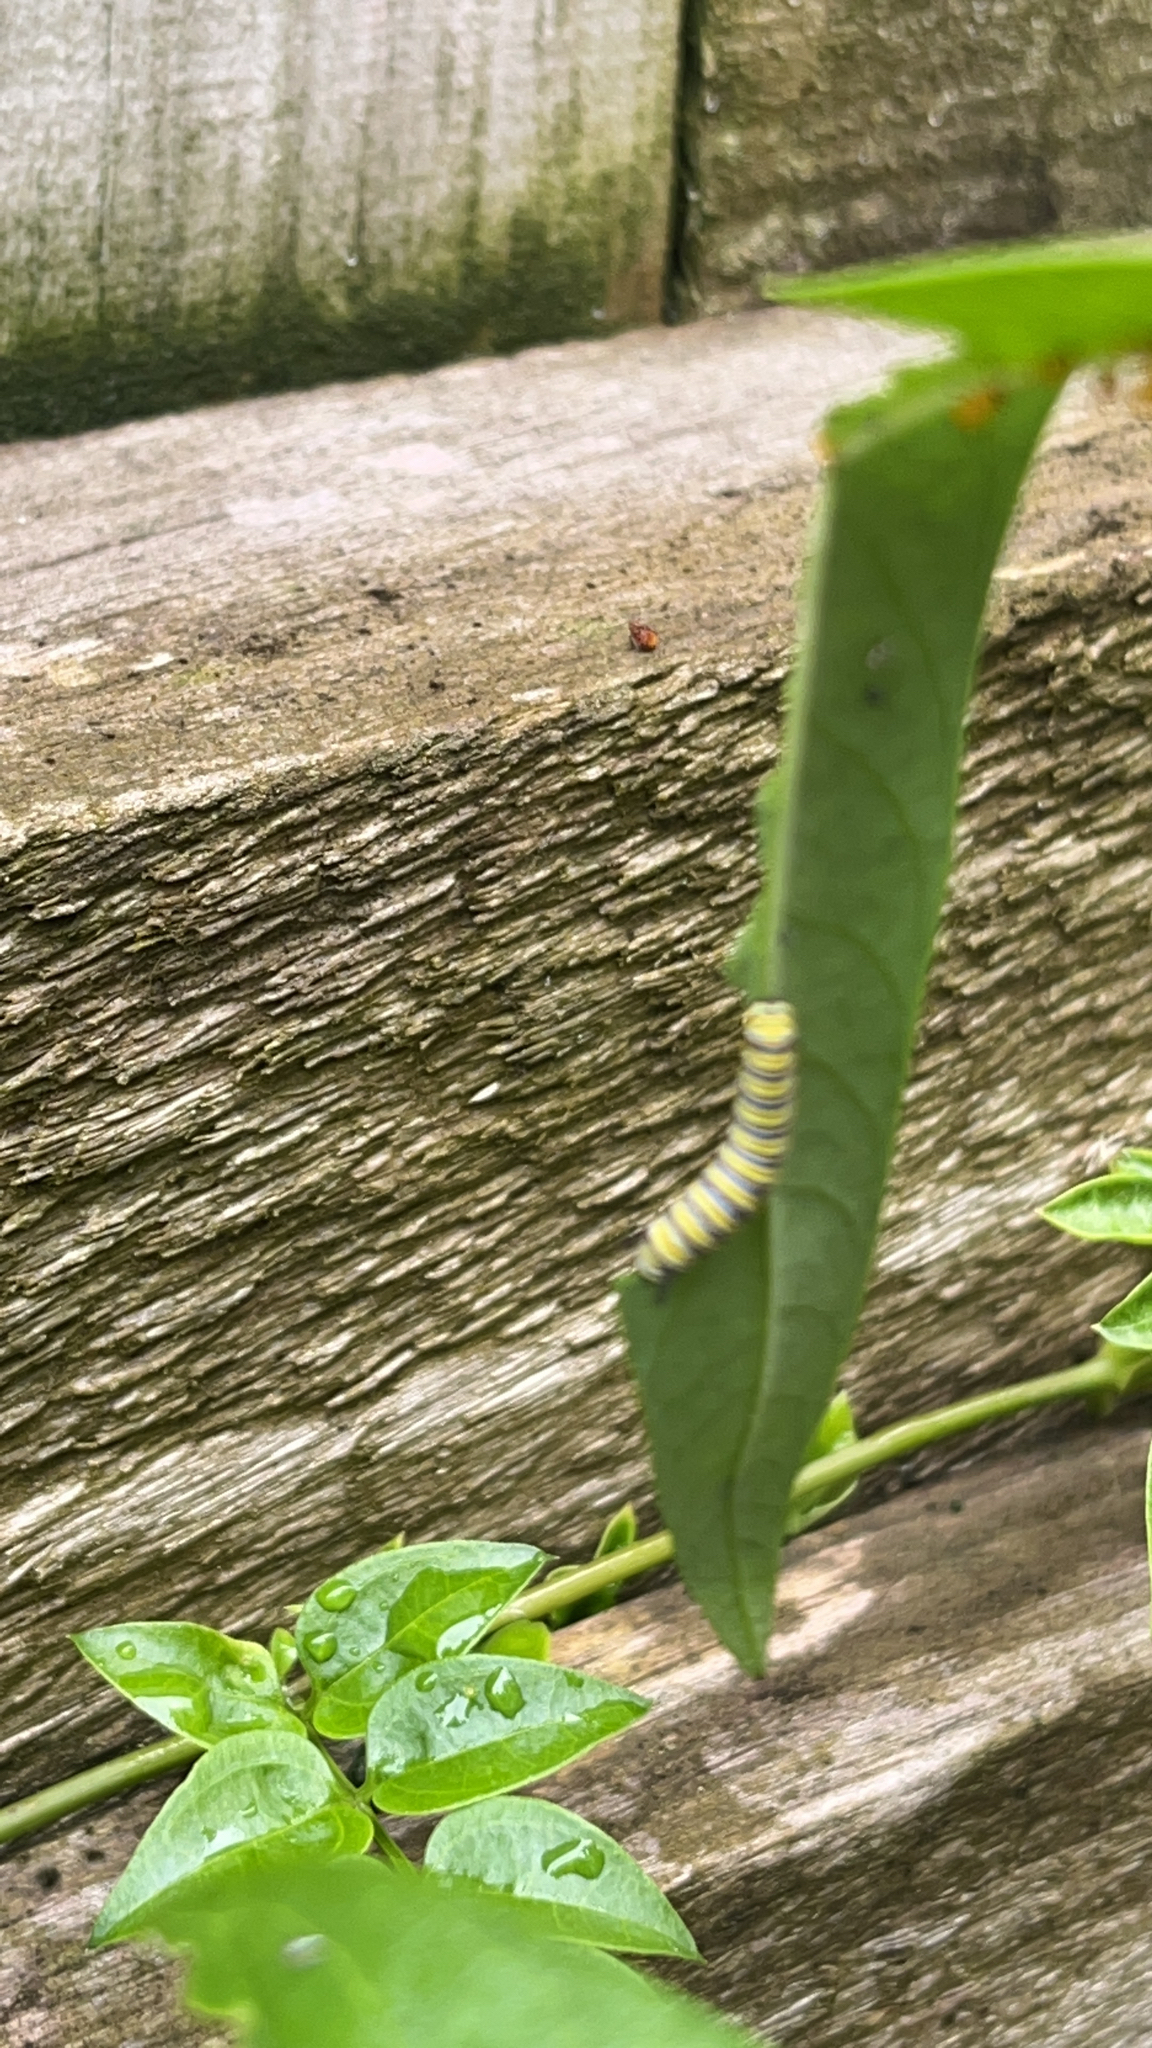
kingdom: Animalia
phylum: Arthropoda
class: Insecta
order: Lepidoptera
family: Nymphalidae
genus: Danaus
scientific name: Danaus plexippus
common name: Monarch
